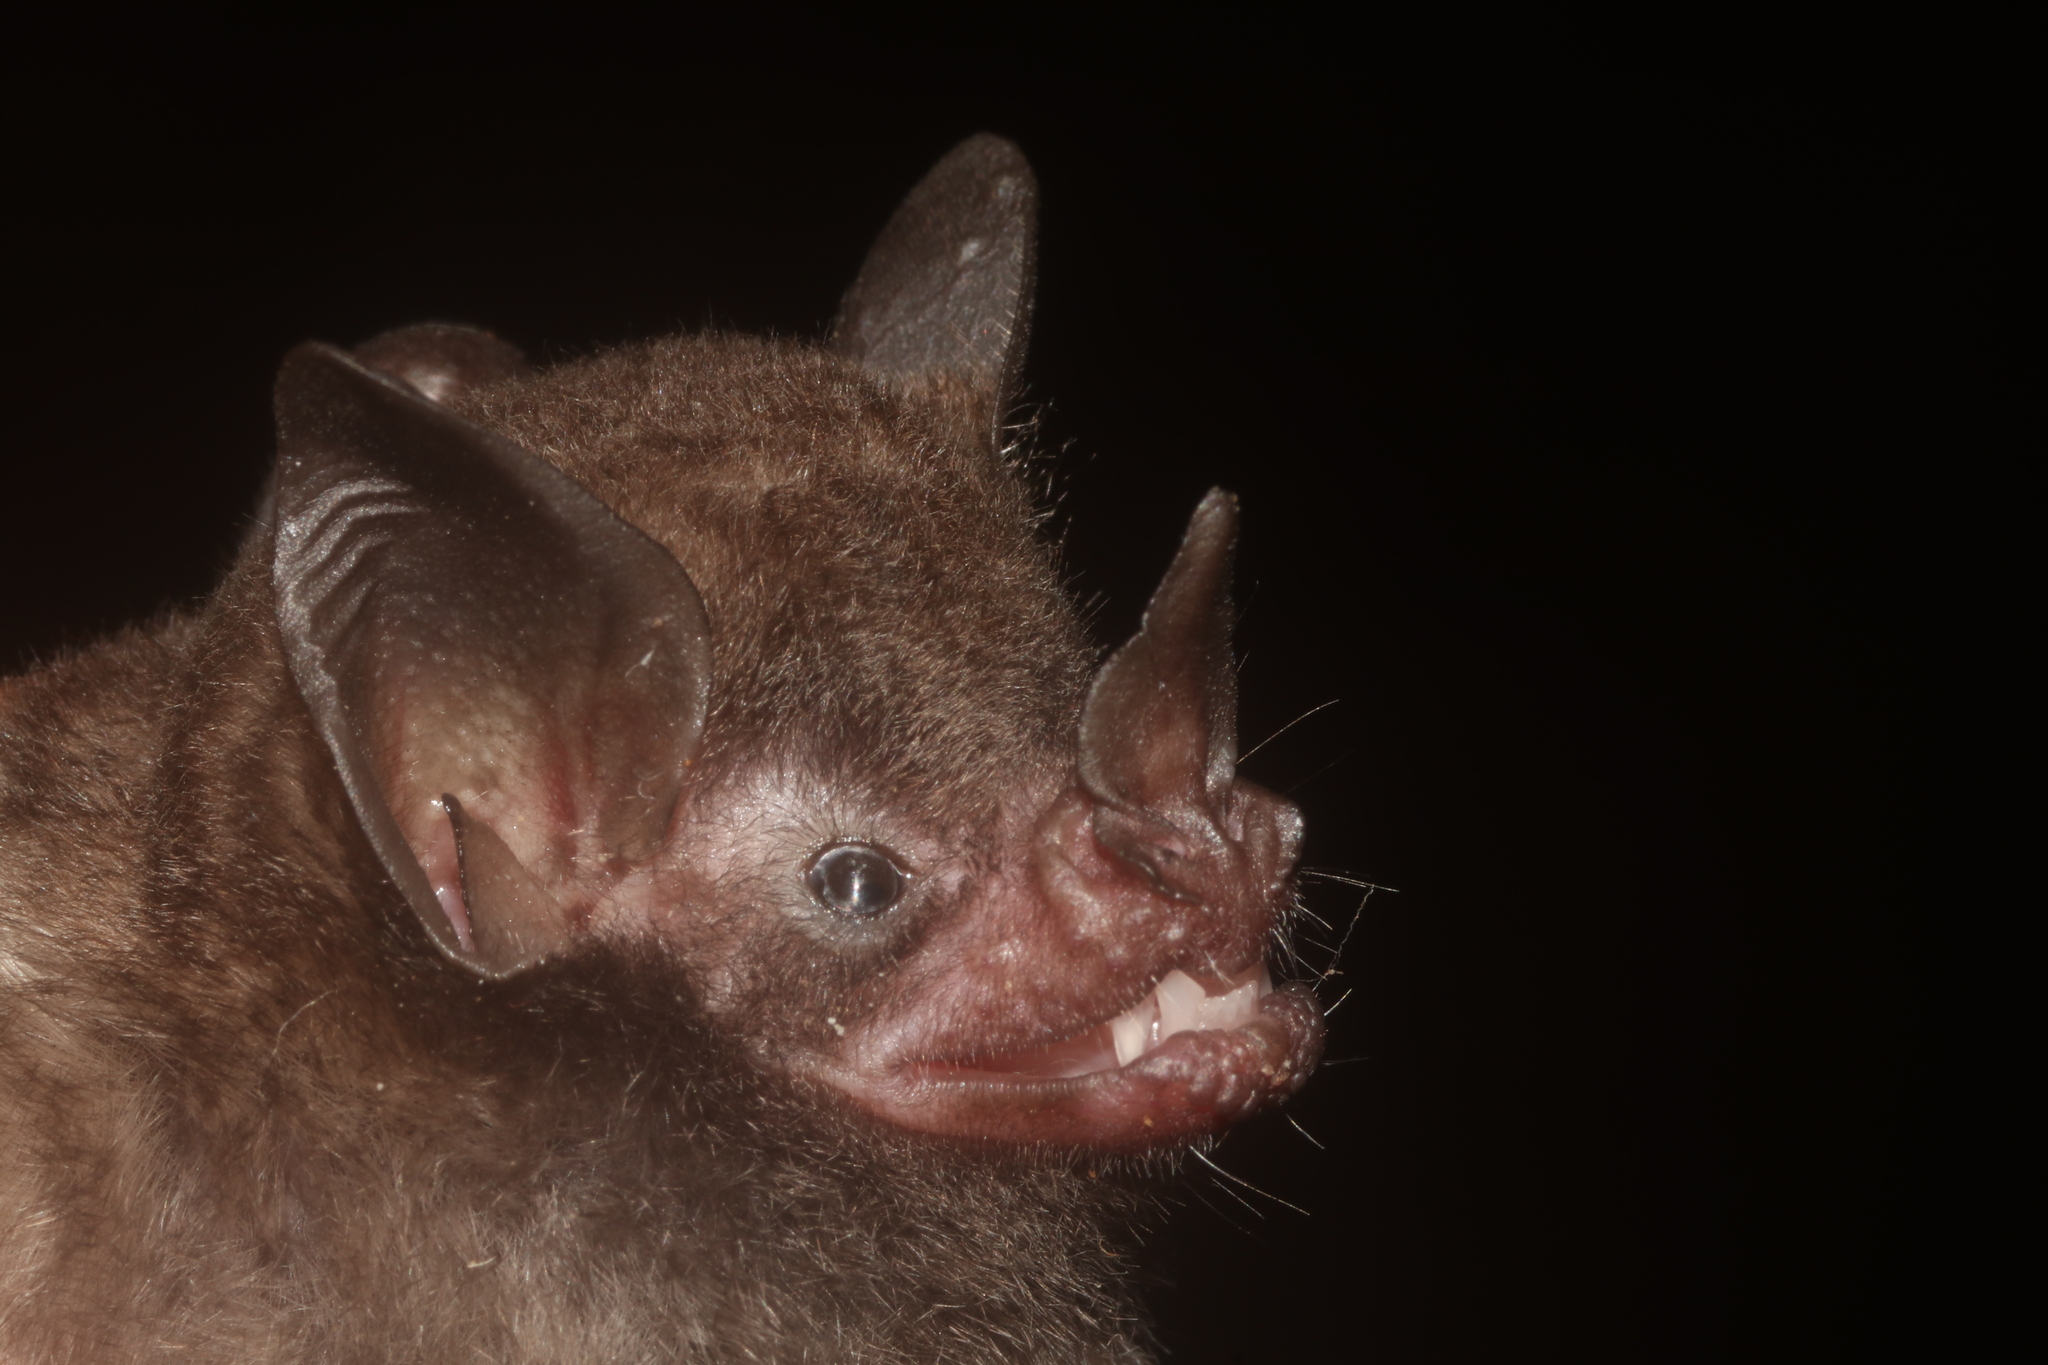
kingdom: Animalia
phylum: Chordata
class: Mammalia
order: Chiroptera
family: Phyllostomidae
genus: Carollia
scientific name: Carollia sowelli
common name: Sowell’s short-tailed bat
